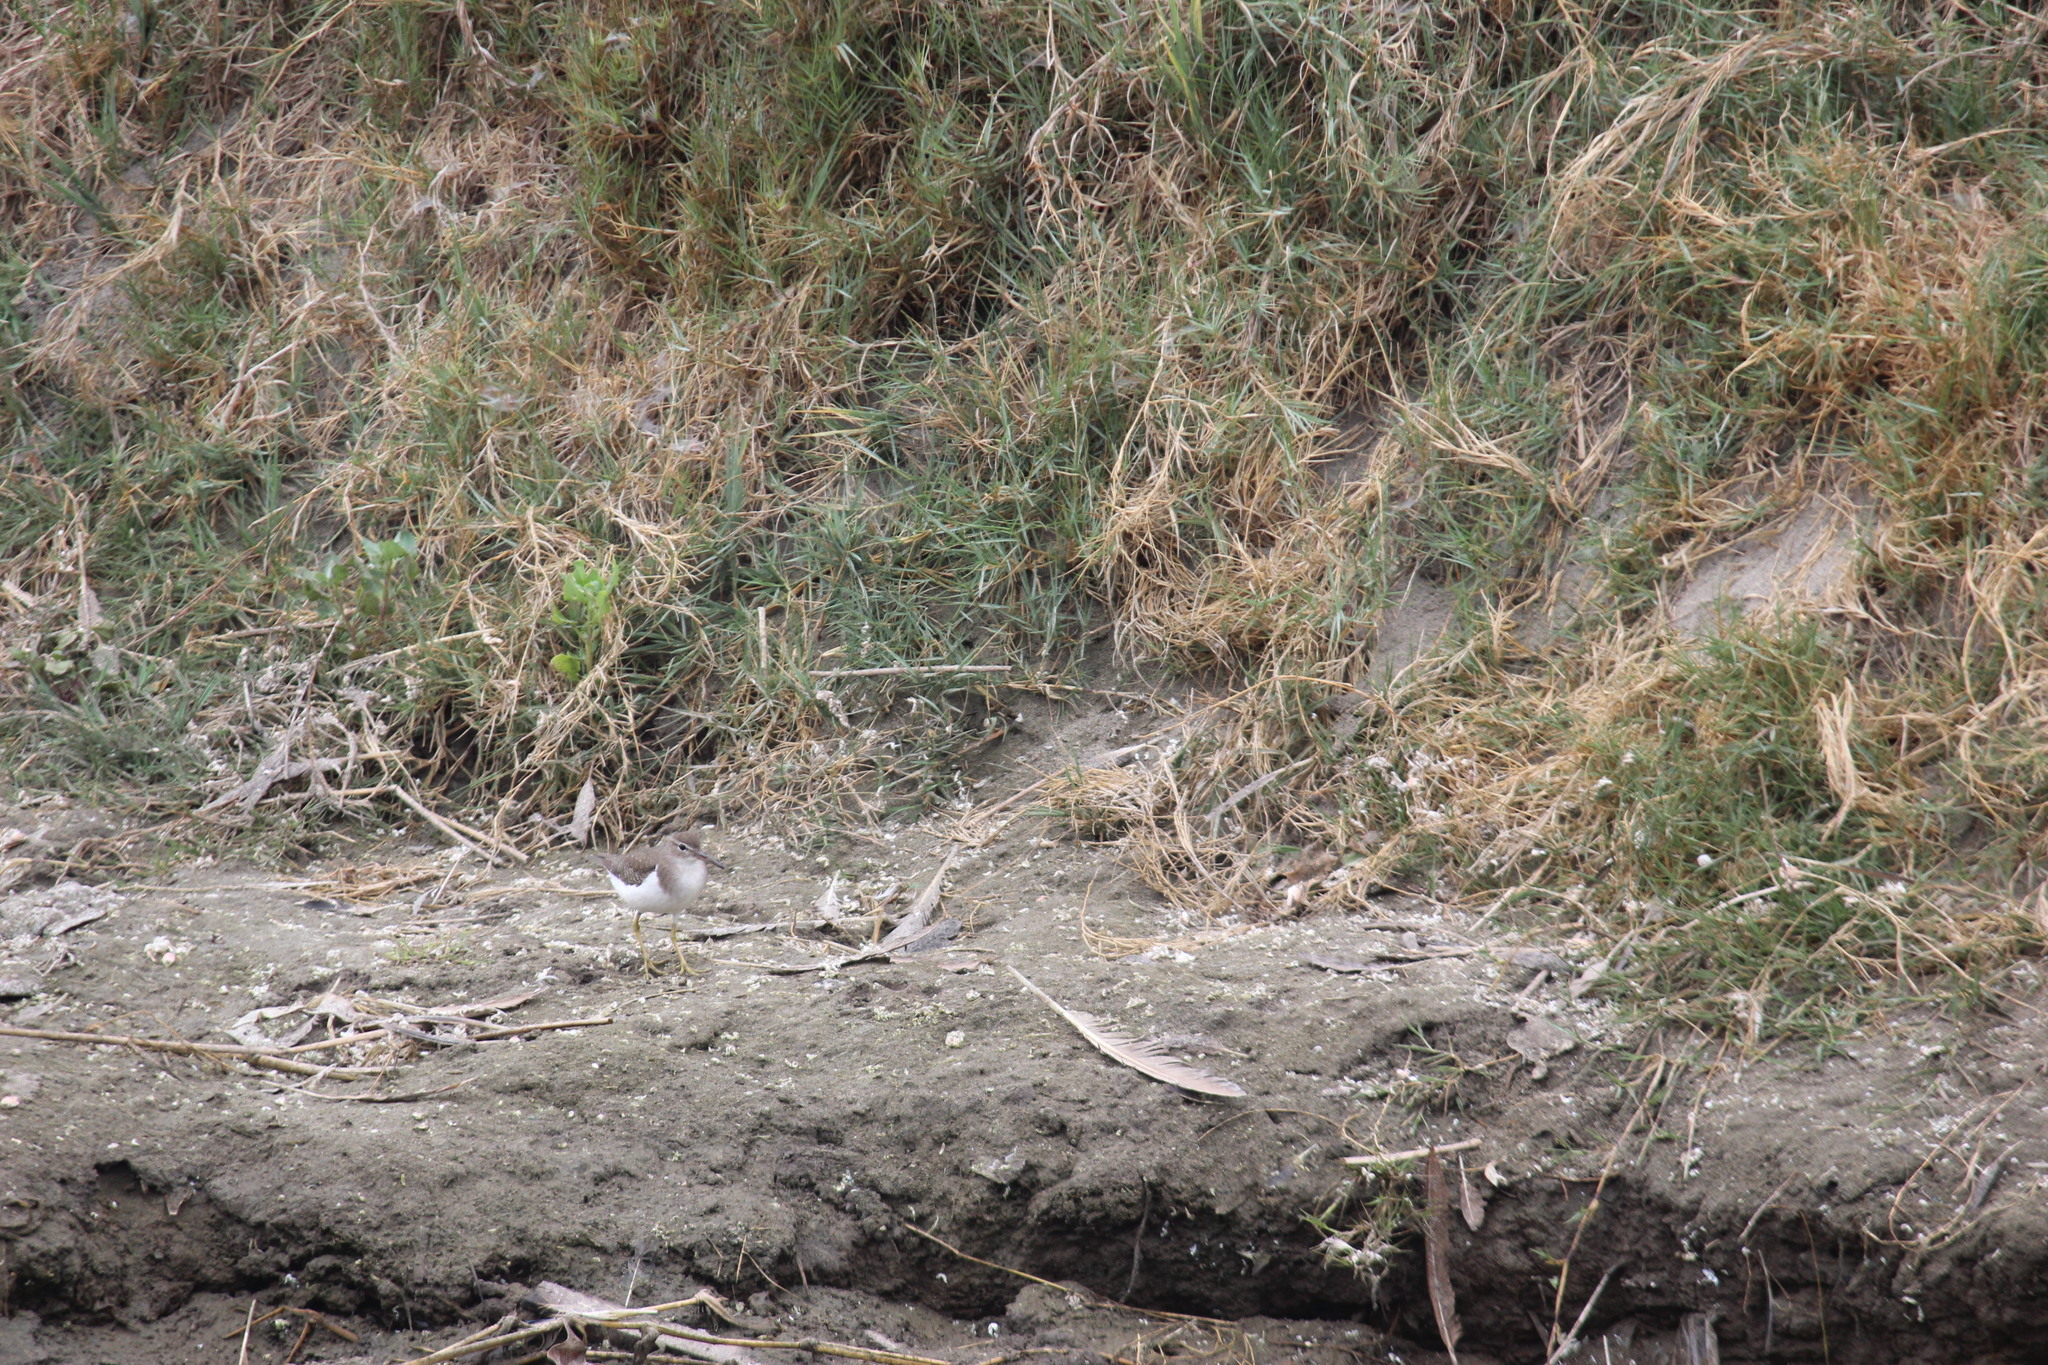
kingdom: Animalia
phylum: Chordata
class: Aves
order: Charadriiformes
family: Scolopacidae
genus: Actitis
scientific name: Actitis macularius
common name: Spotted sandpiper
